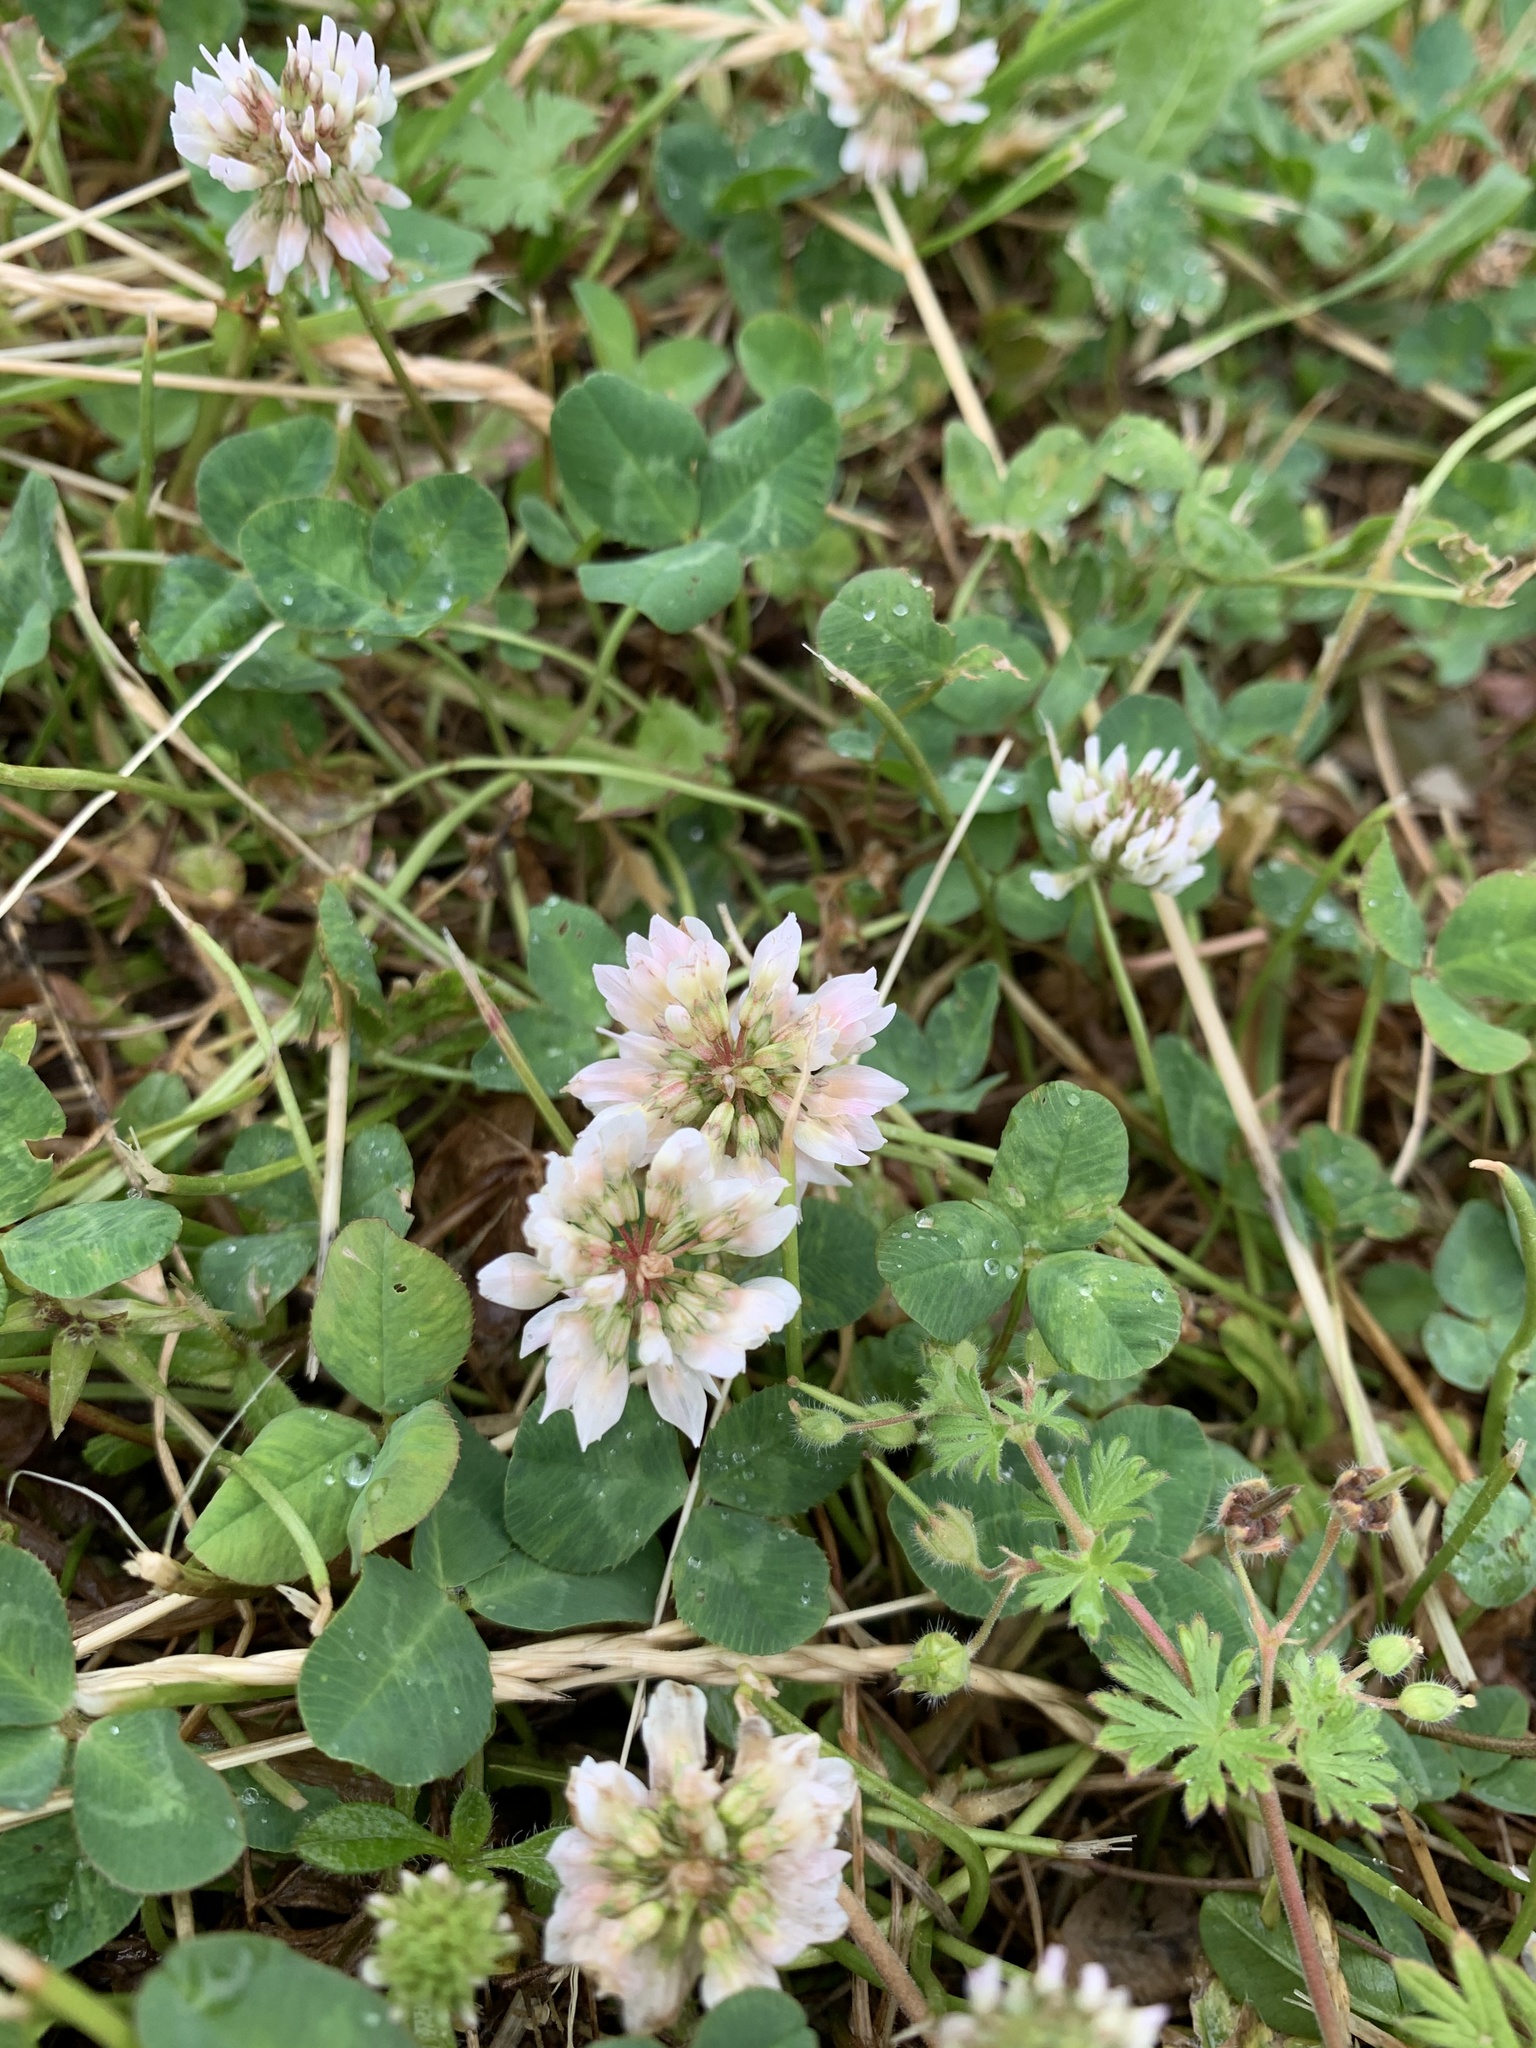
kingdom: Plantae
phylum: Tracheophyta
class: Magnoliopsida
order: Fabales
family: Fabaceae
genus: Trifolium
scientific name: Trifolium repens
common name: White clover
